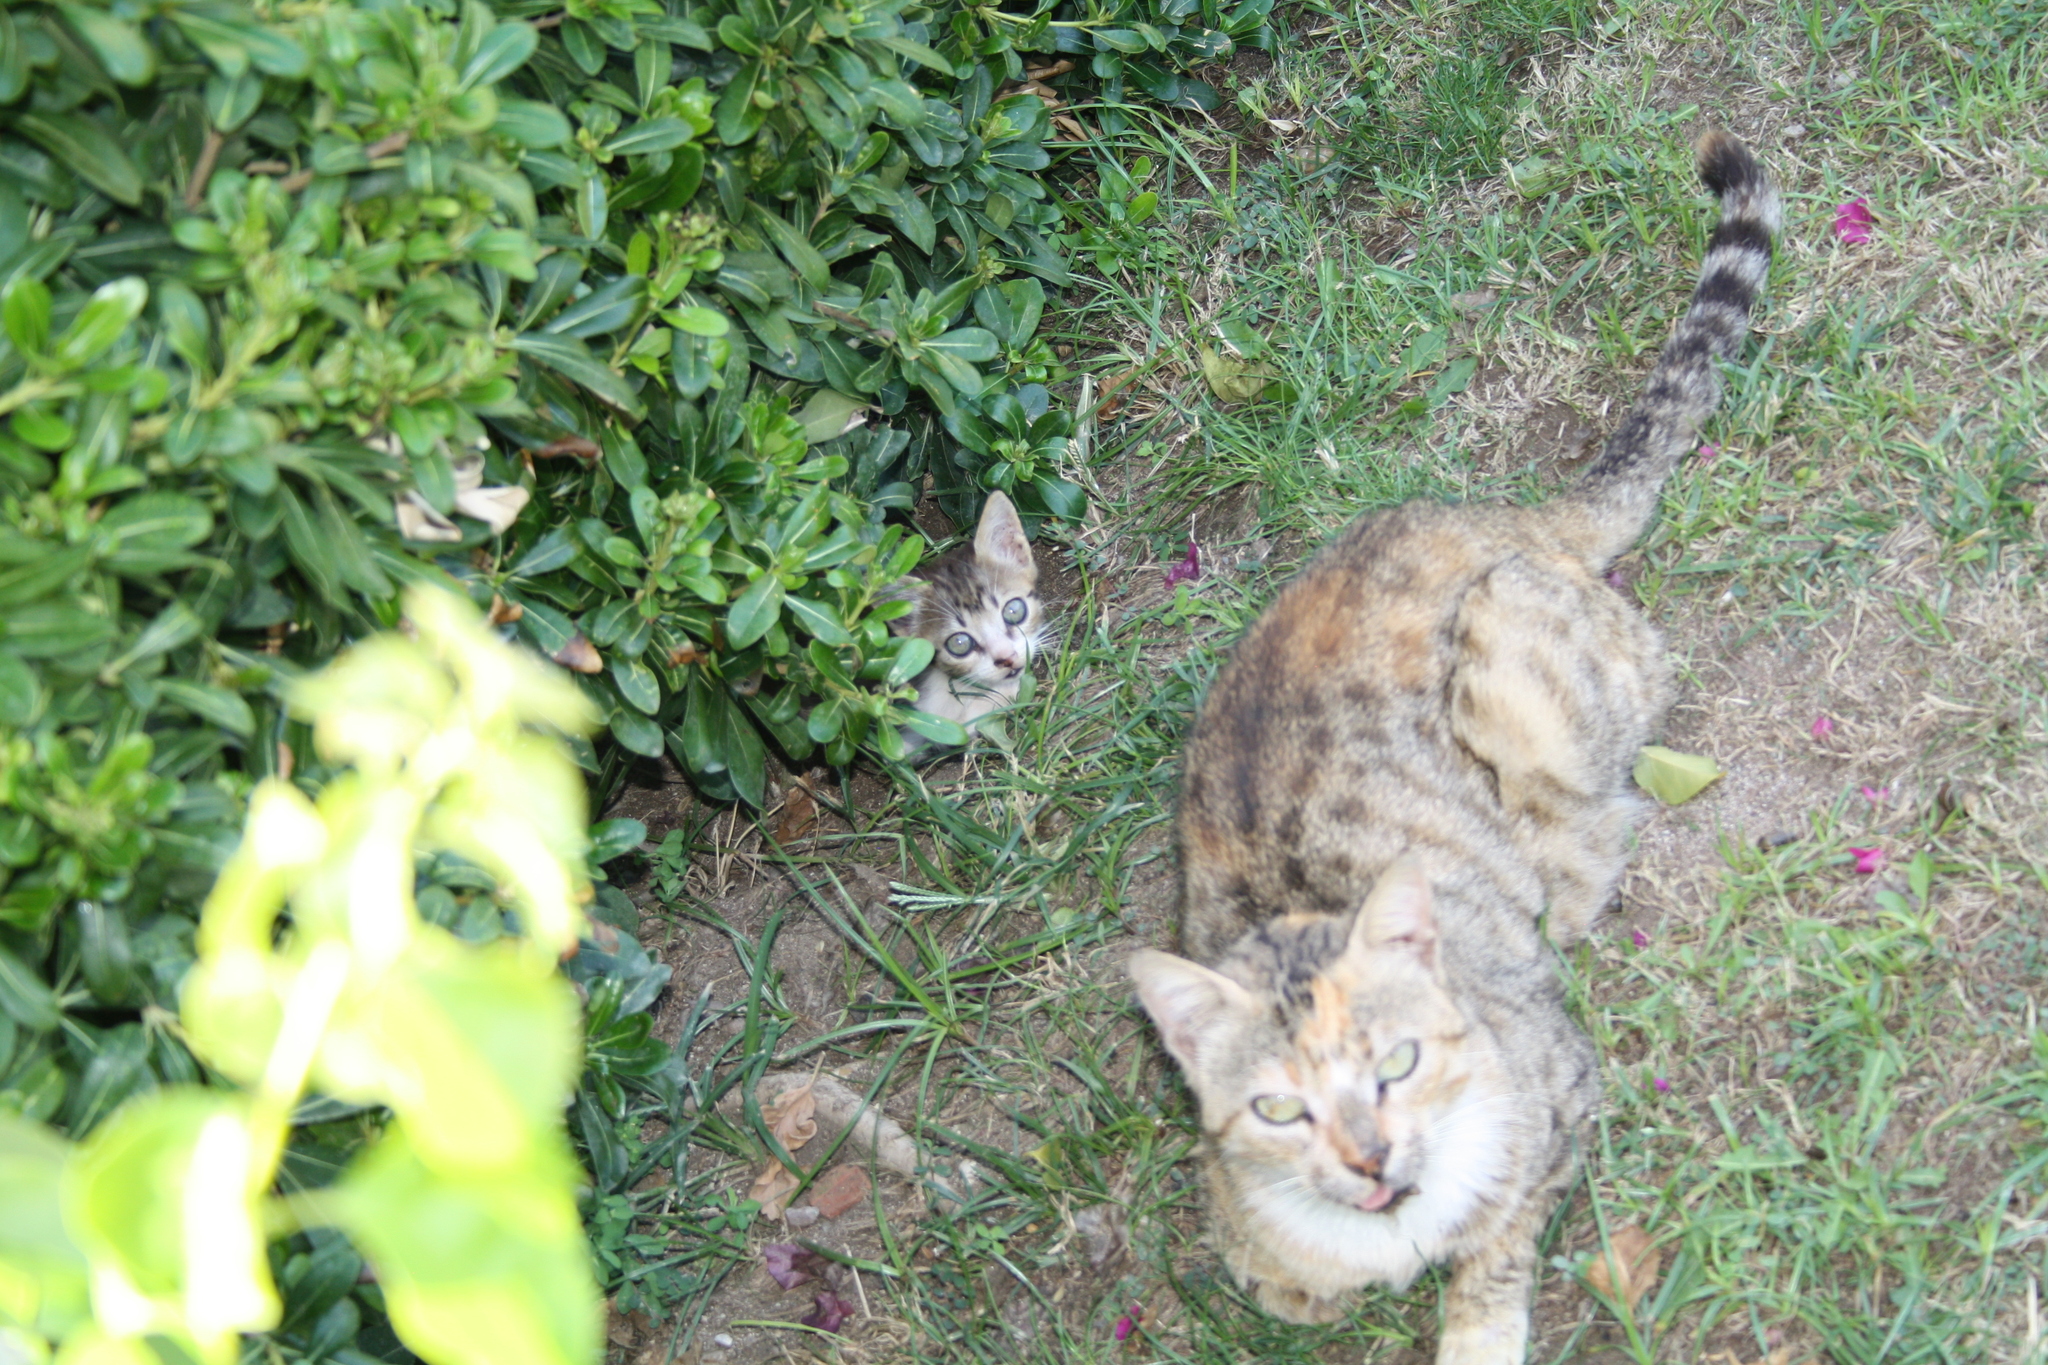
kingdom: Animalia
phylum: Chordata
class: Mammalia
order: Carnivora
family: Felidae
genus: Felis
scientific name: Felis catus
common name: Domestic cat
